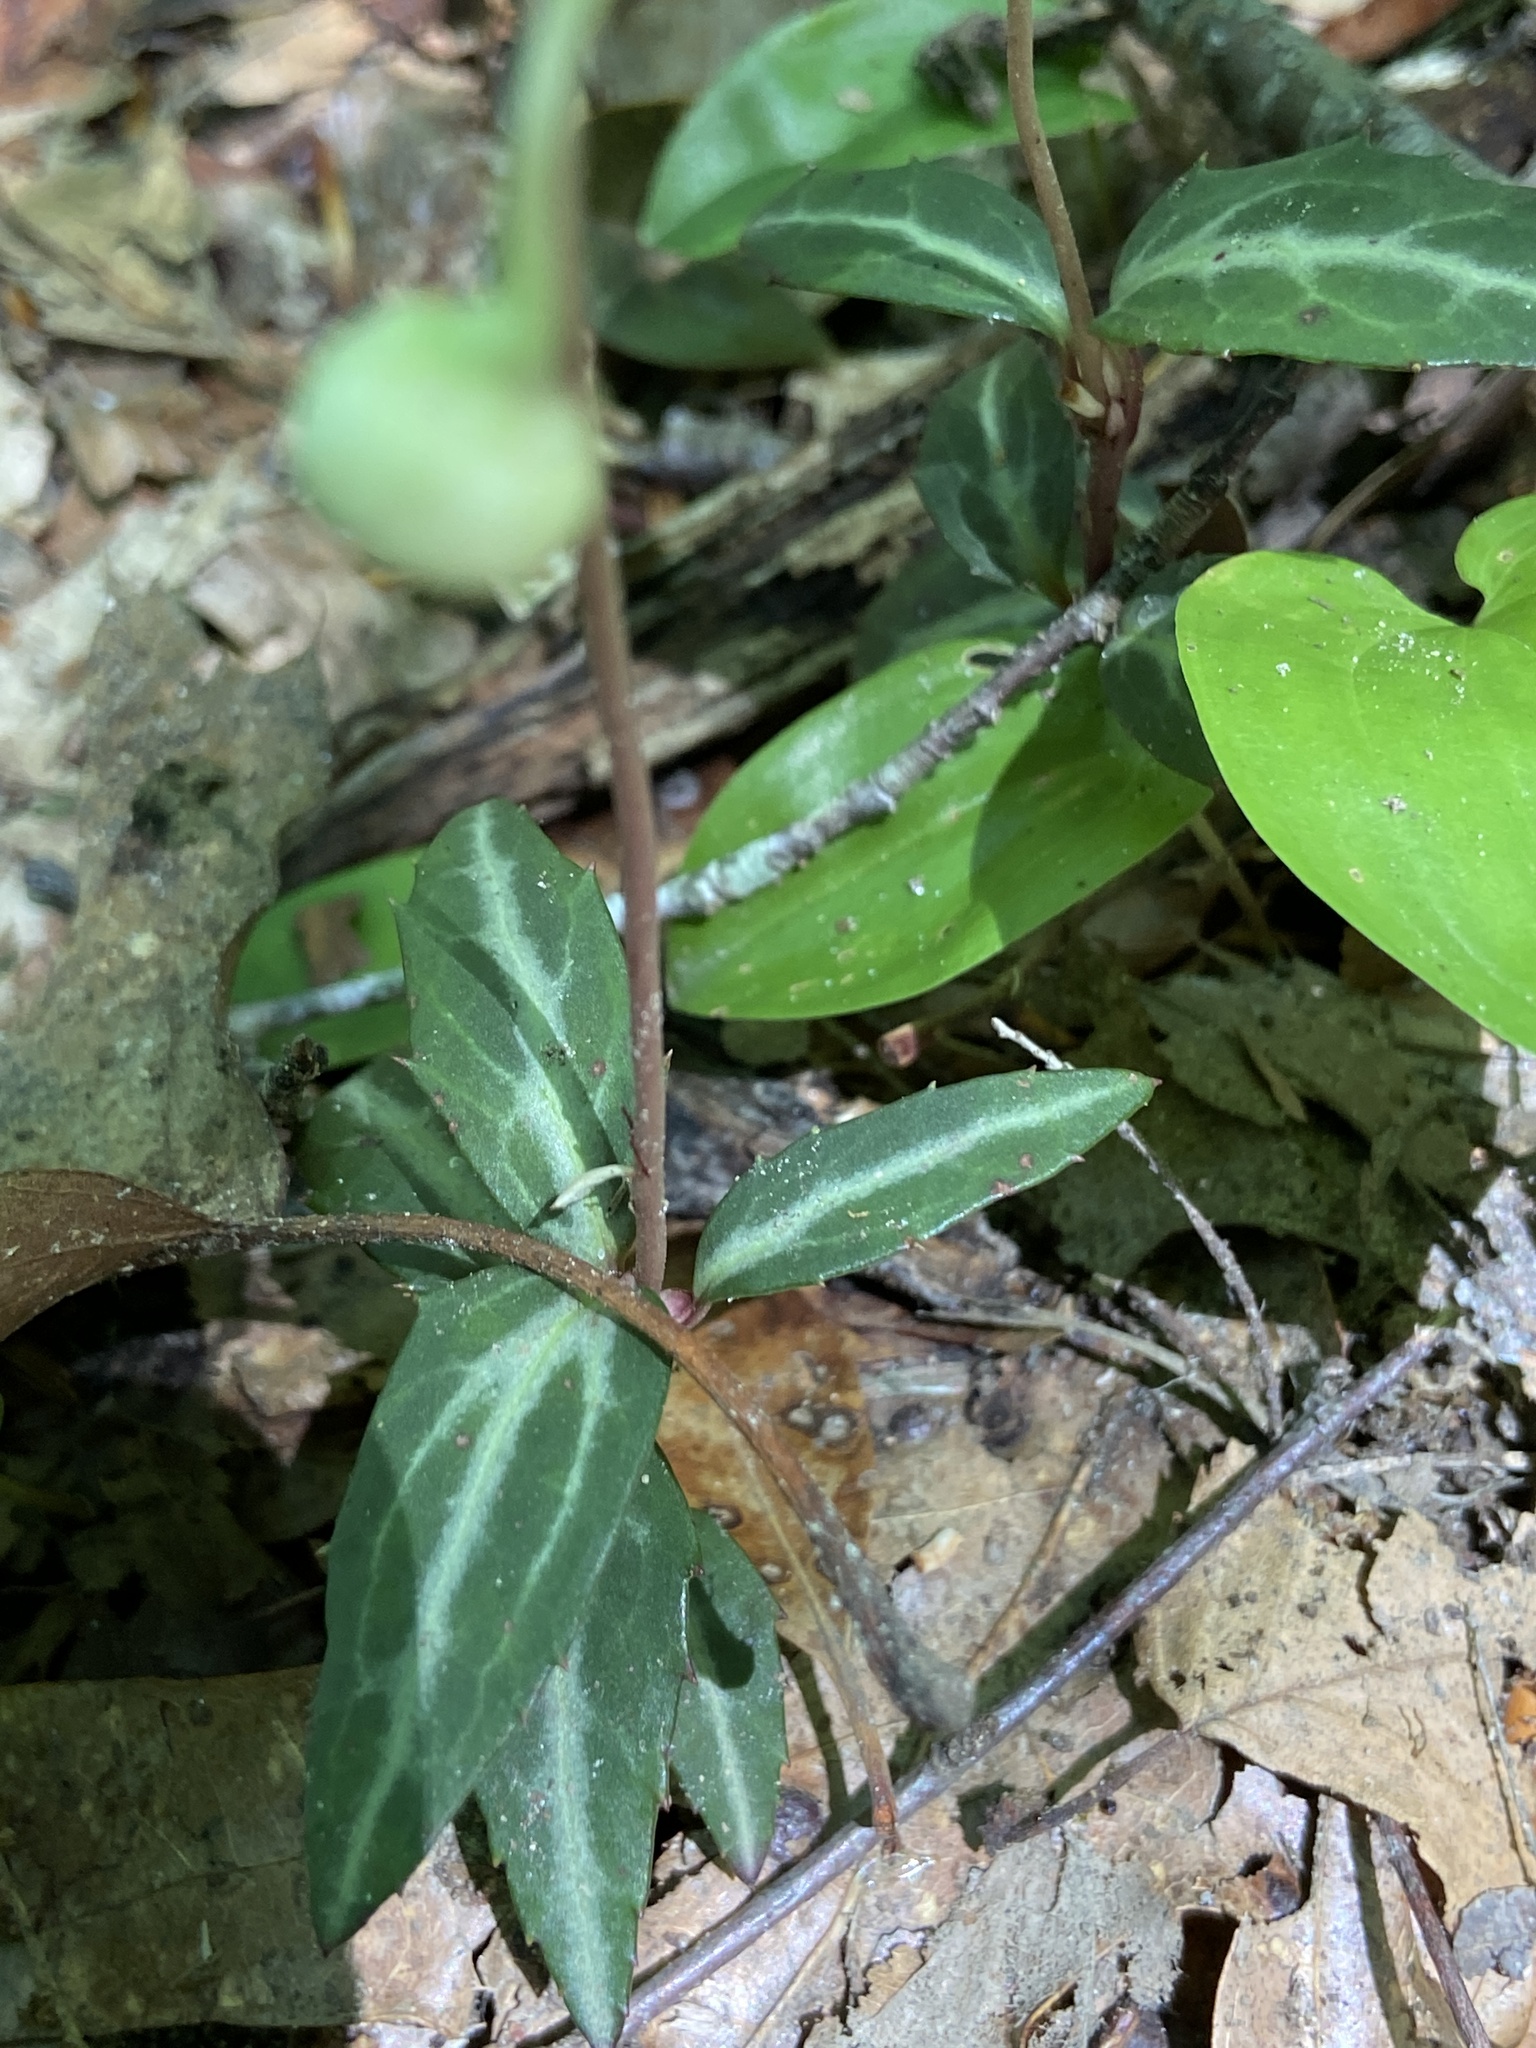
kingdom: Plantae
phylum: Tracheophyta
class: Magnoliopsida
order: Ericales
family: Ericaceae
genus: Chimaphila
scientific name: Chimaphila maculata
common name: Spotted pipsissewa
